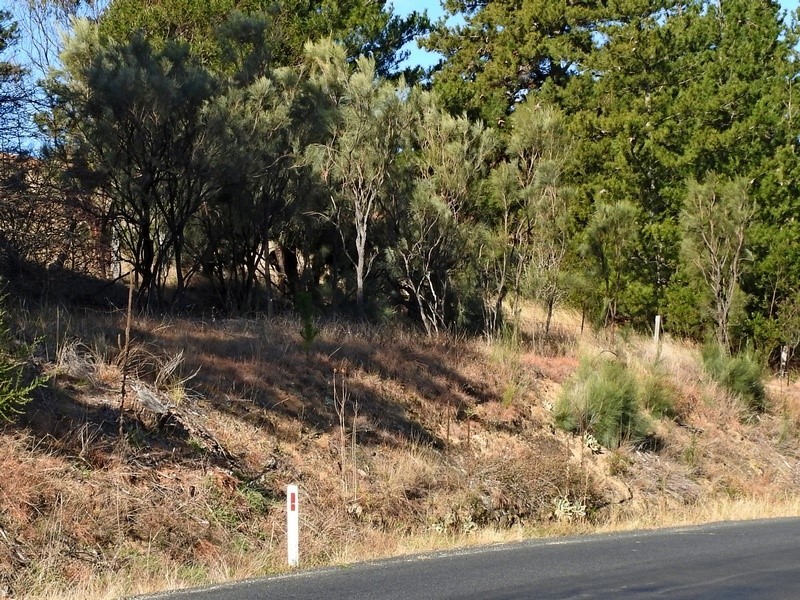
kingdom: Plantae
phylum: Tracheophyta
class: Magnoliopsida
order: Fabales
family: Fabaceae
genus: Jacksonia
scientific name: Jacksonia scoparia
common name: Dogwood
